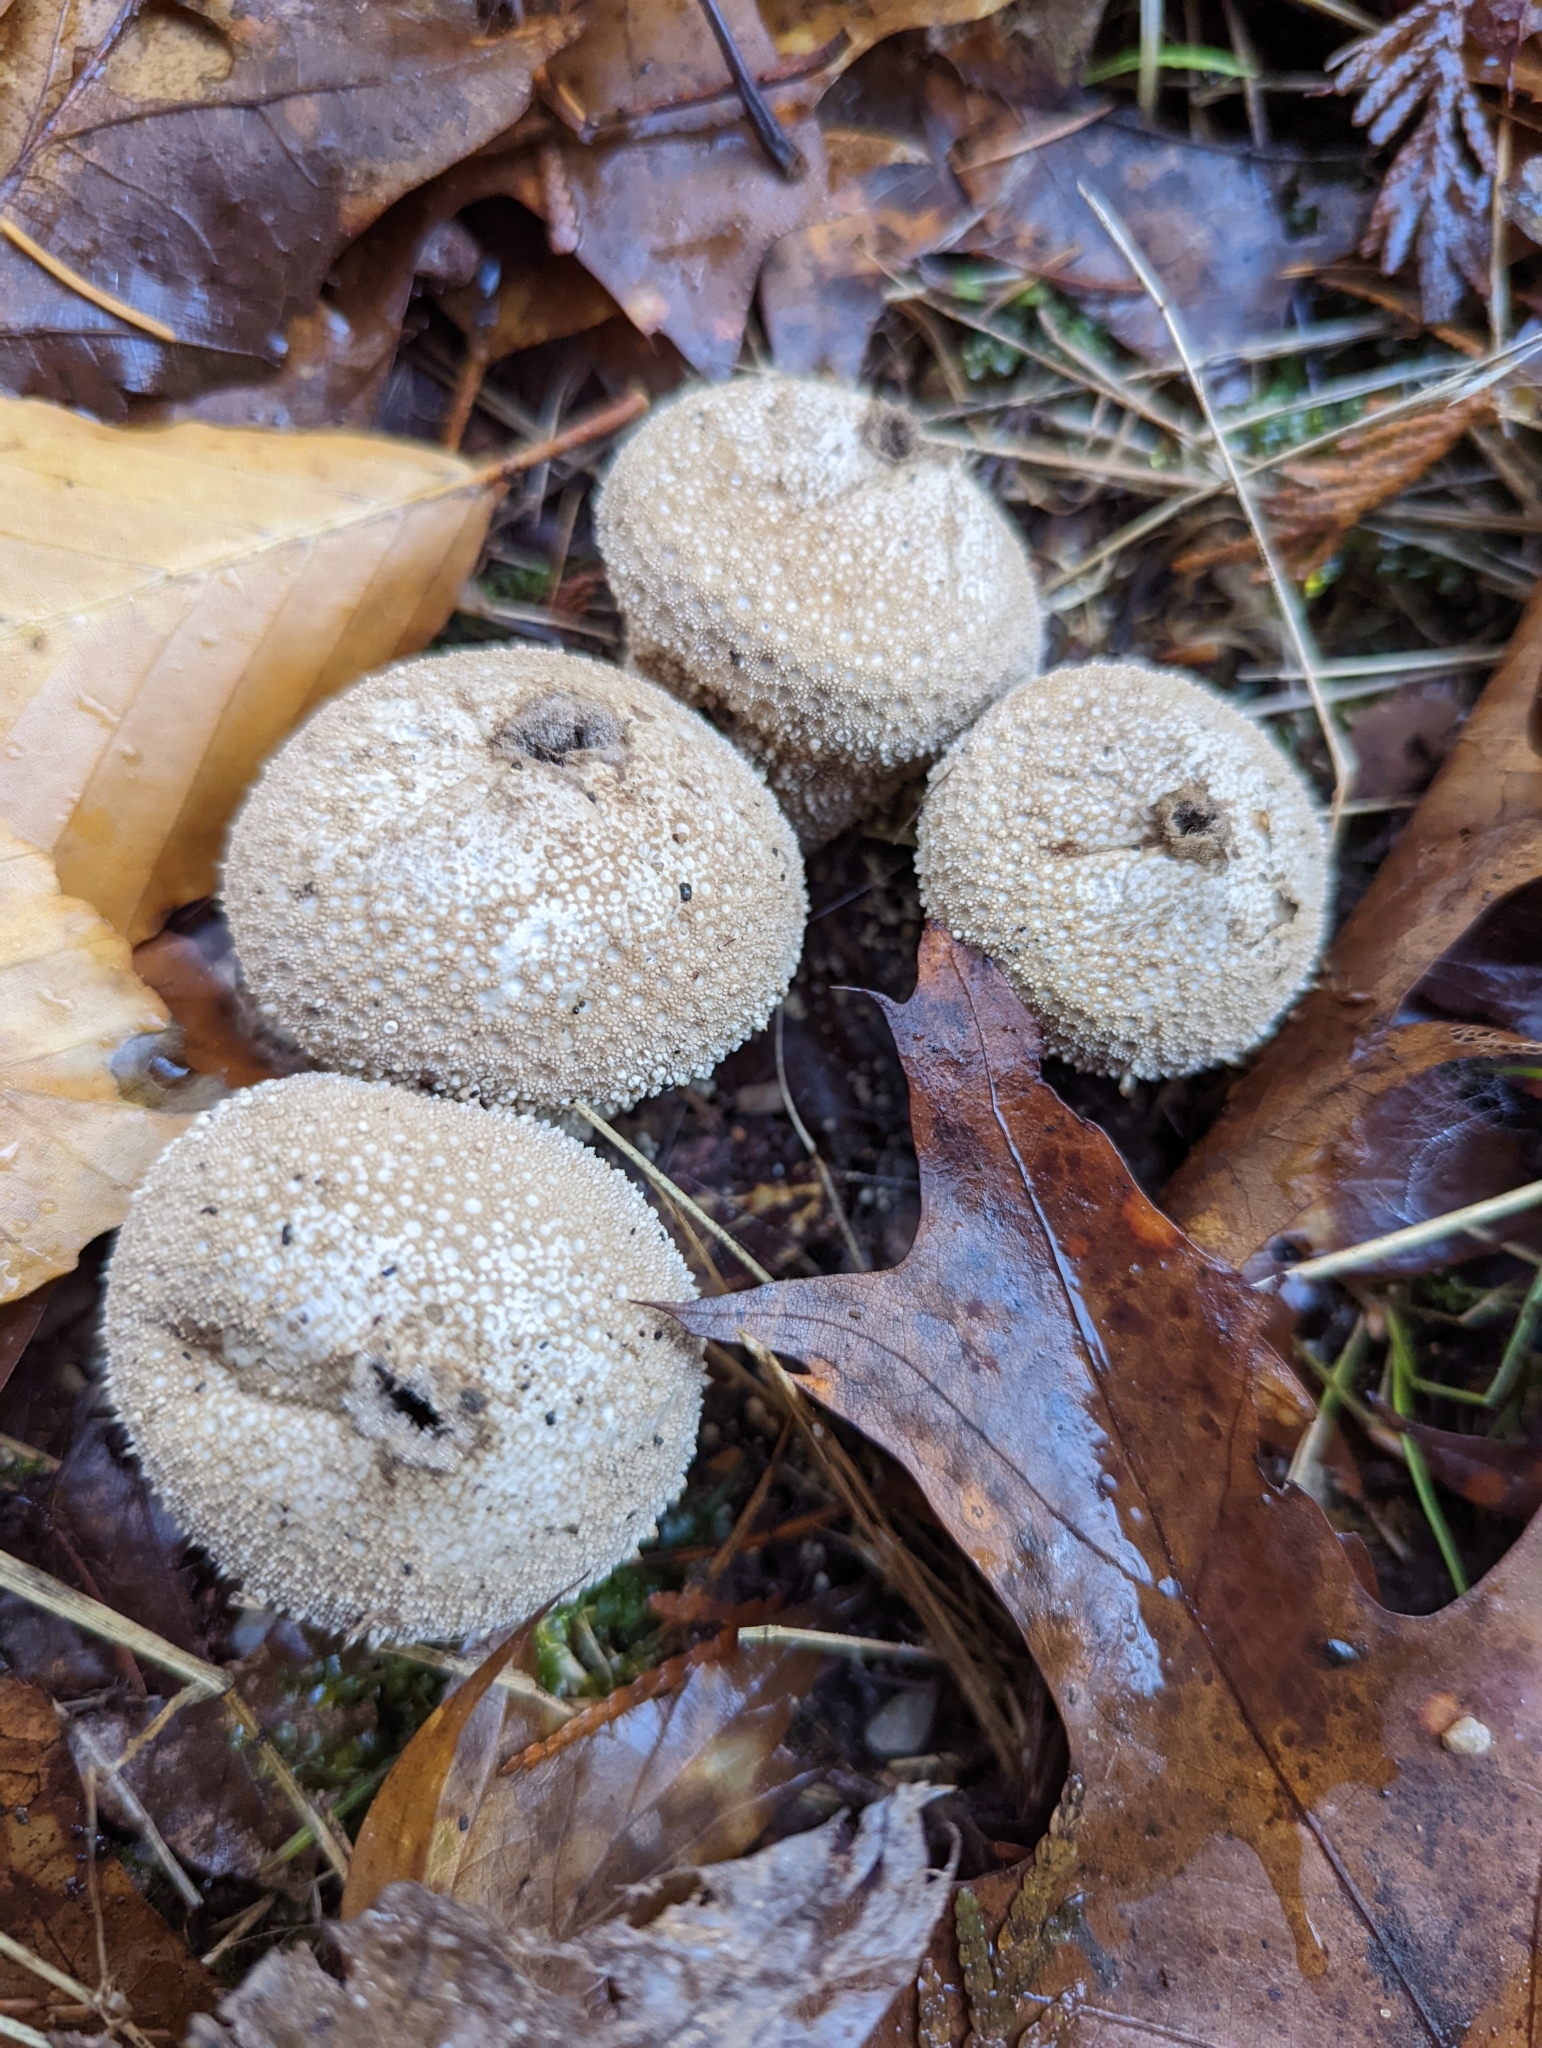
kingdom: Fungi
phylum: Basidiomycota
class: Agaricomycetes
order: Agaricales
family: Lycoperdaceae
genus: Lycoperdon
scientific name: Lycoperdon perlatum
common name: Common puffball
